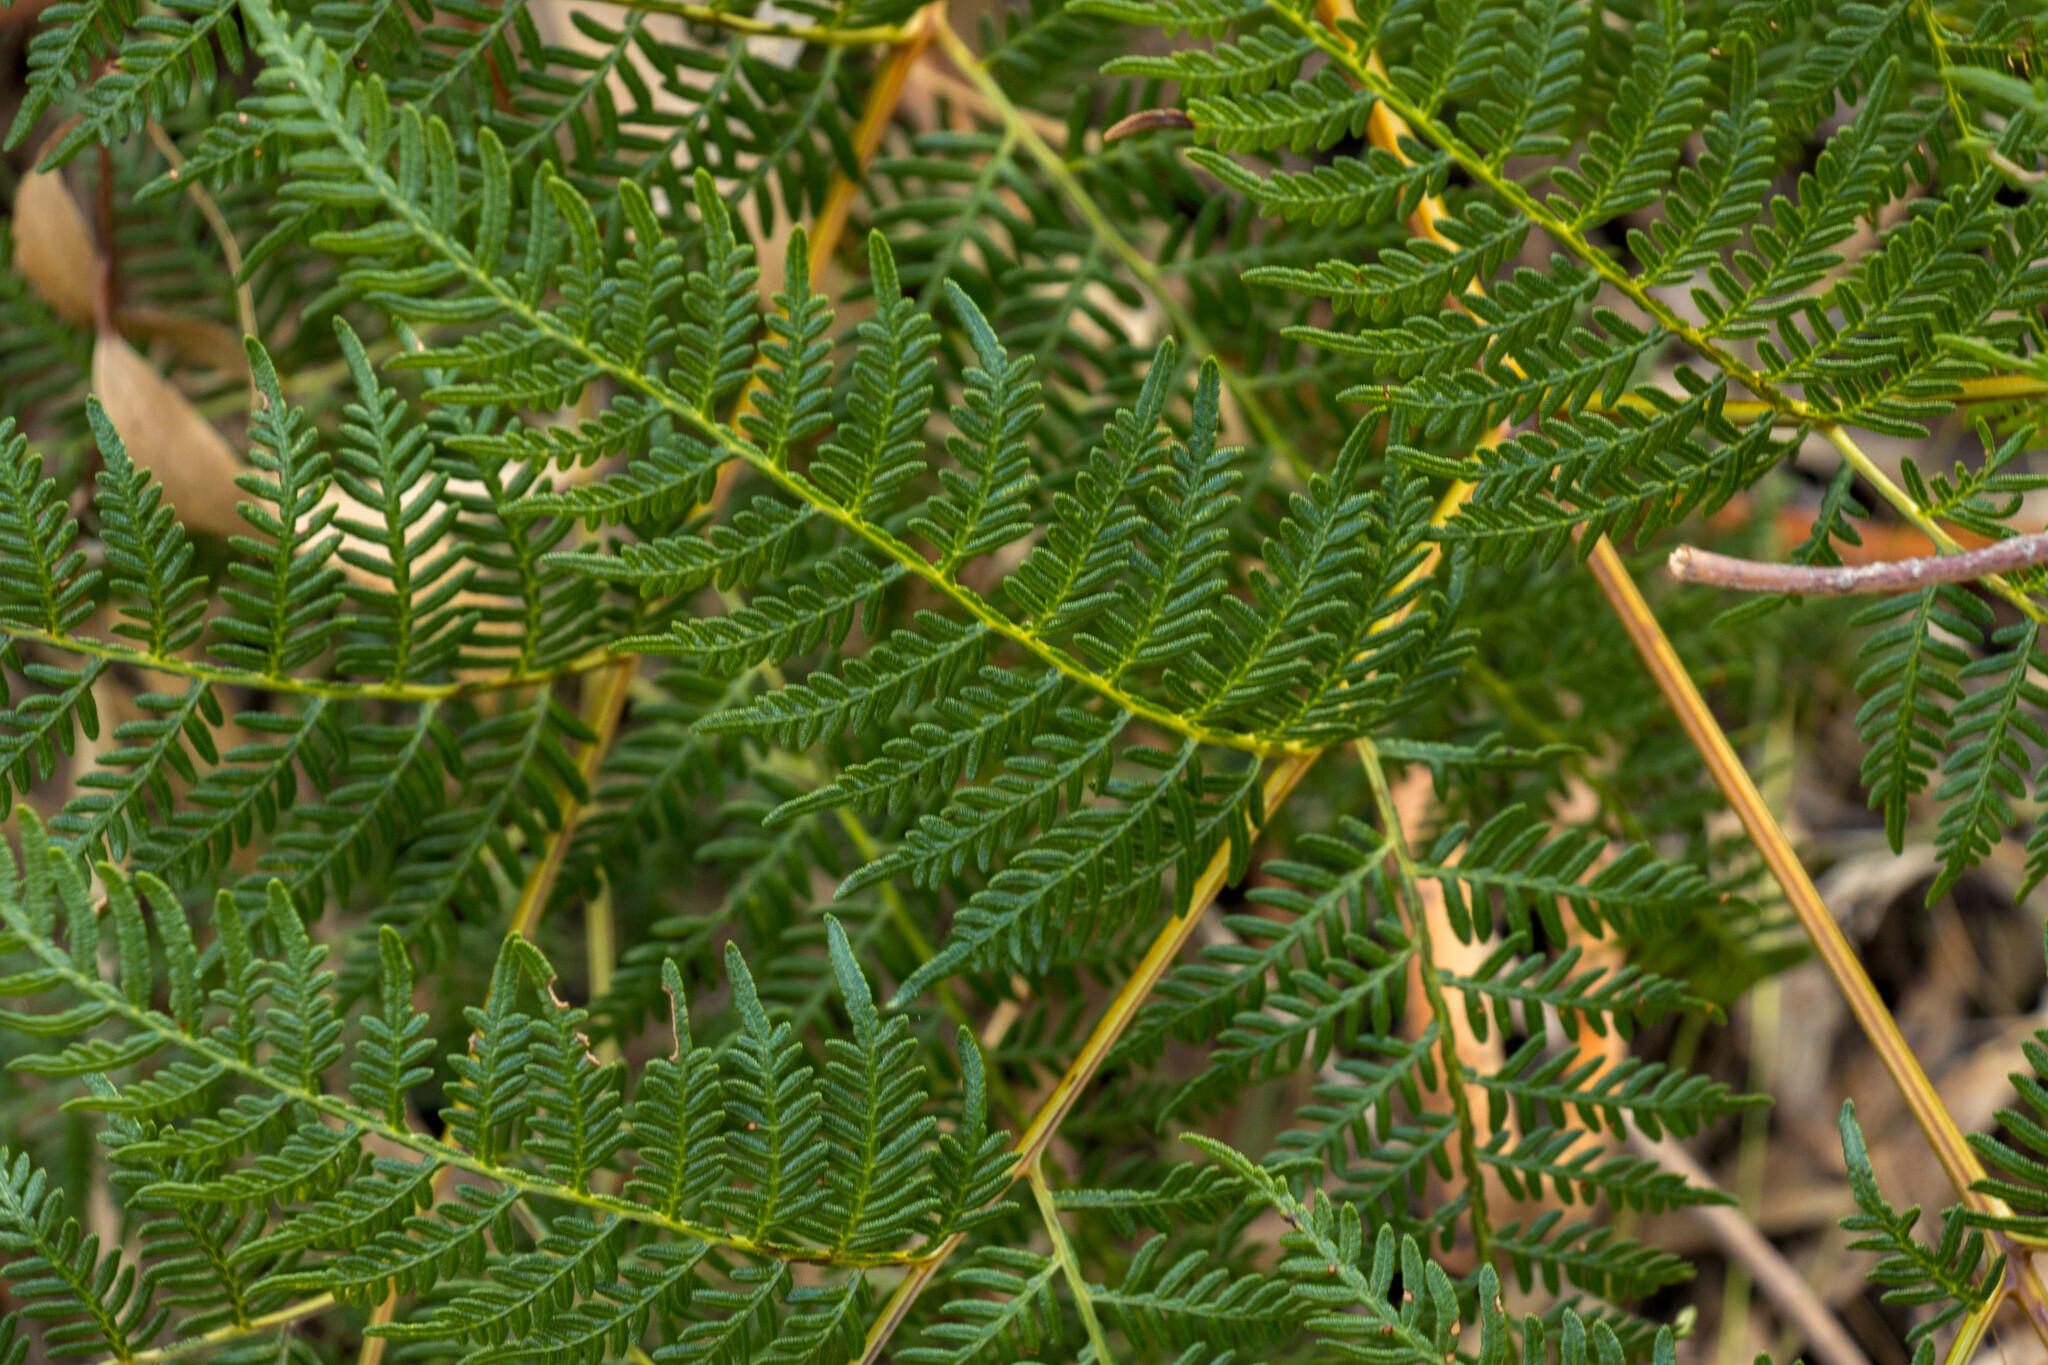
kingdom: Plantae
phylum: Tracheophyta
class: Polypodiopsida
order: Polypodiales
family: Dennstaedtiaceae
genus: Pteridium
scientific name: Pteridium esculentum
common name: Bracken fern
